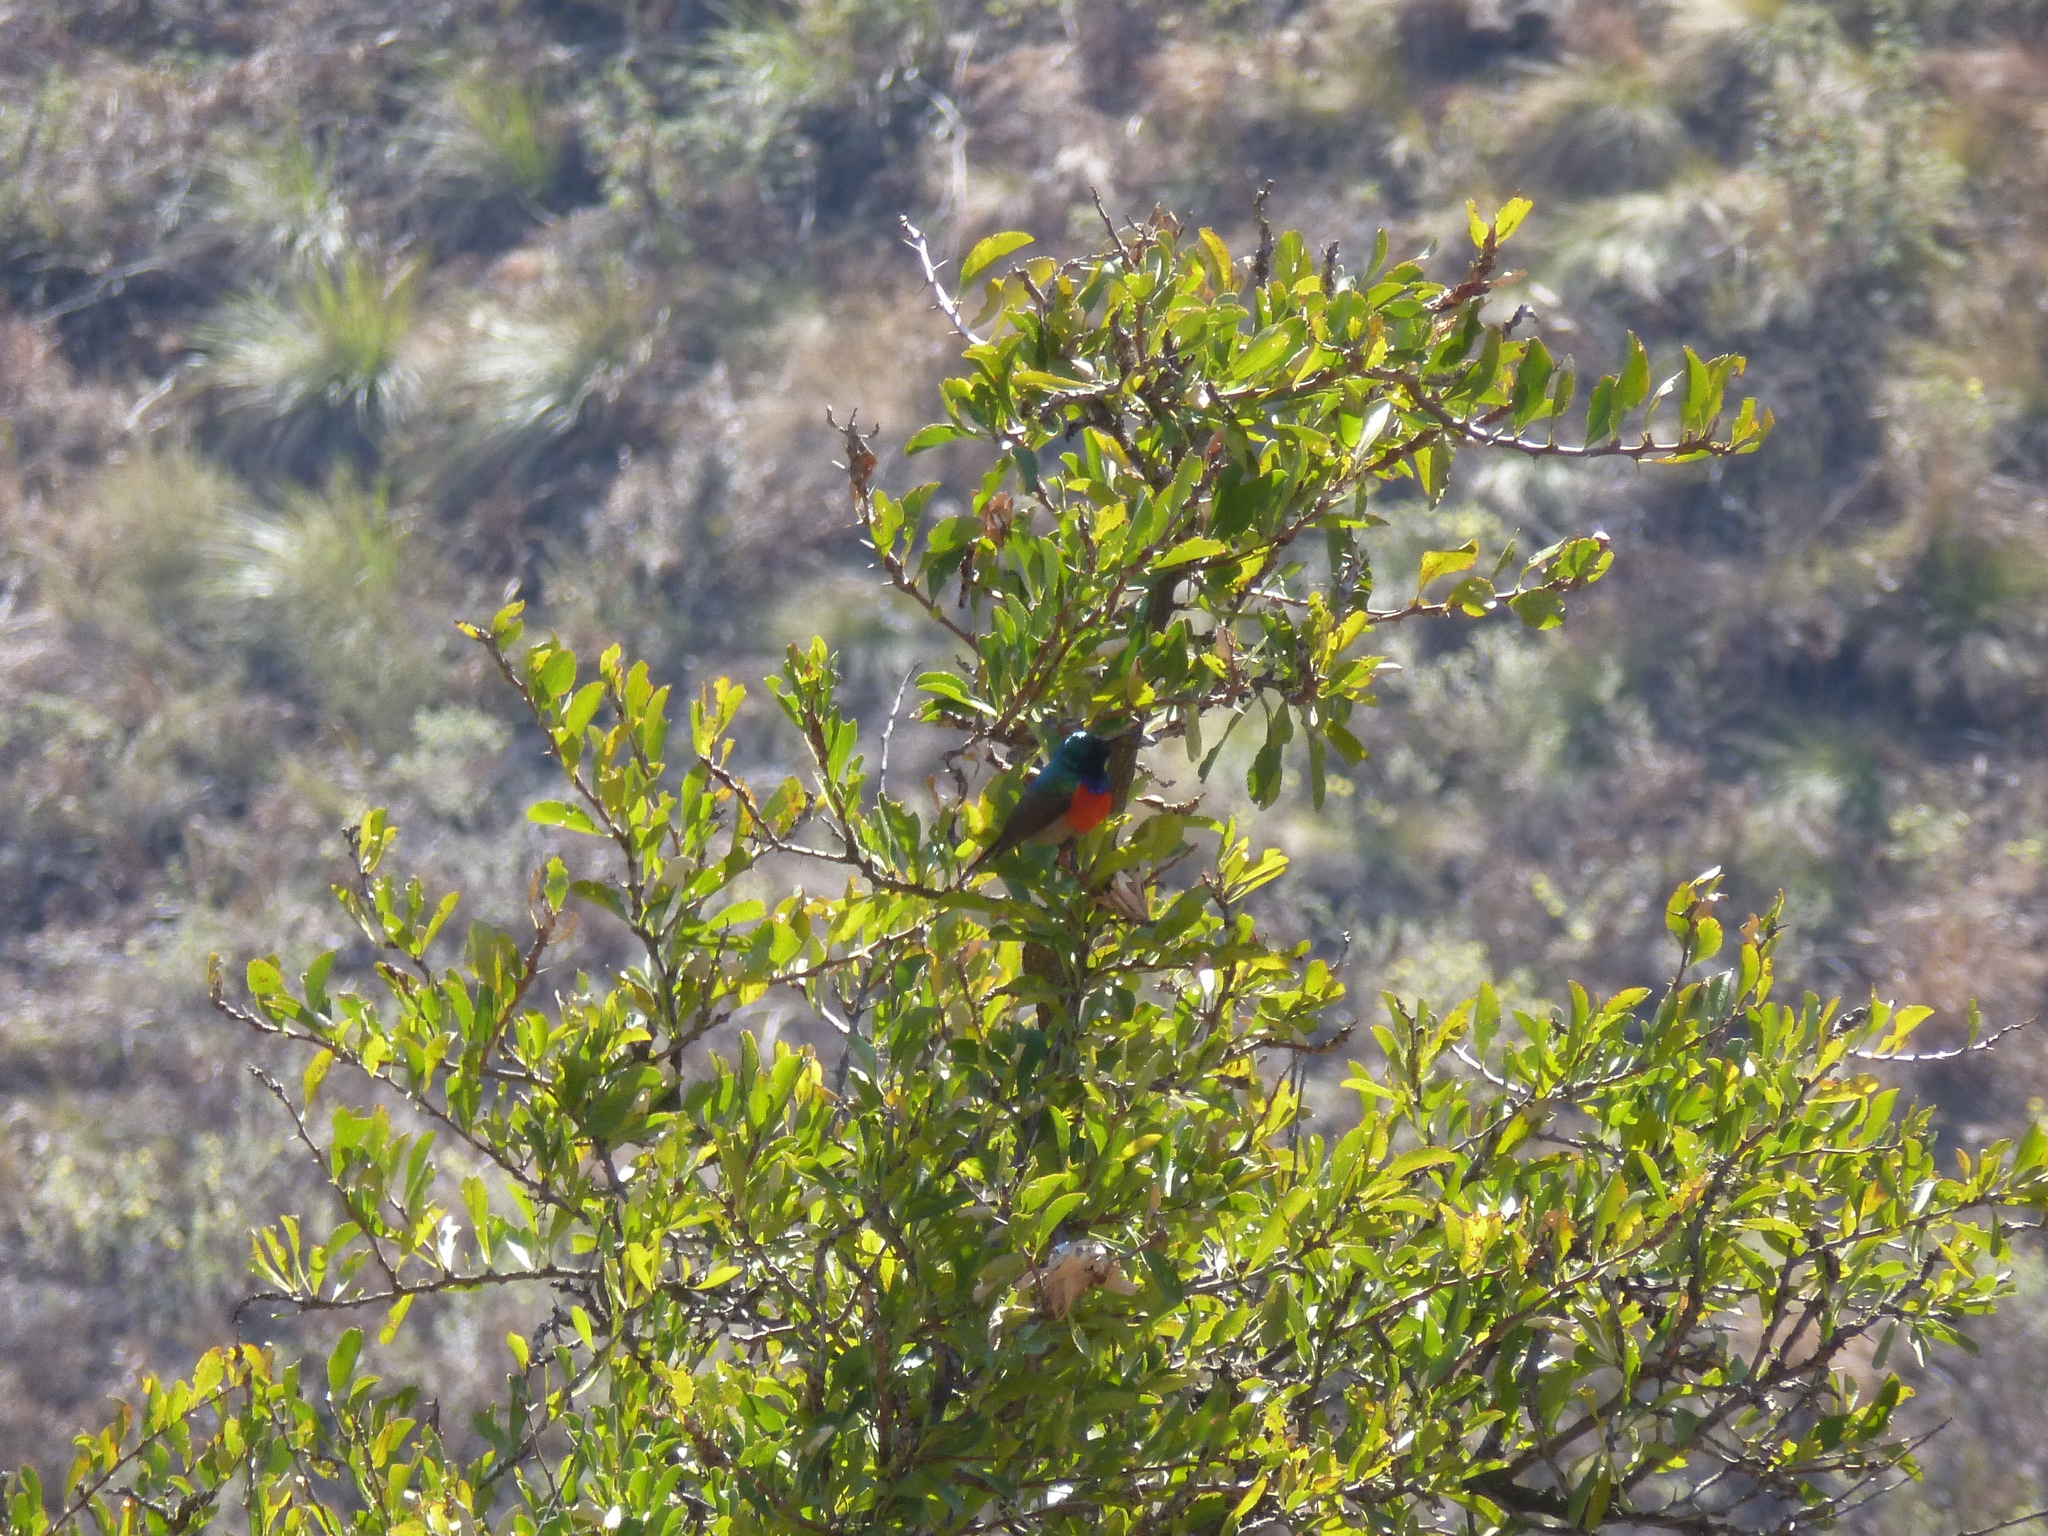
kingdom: Animalia
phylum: Chordata
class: Aves
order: Passeriformes
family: Nectariniidae
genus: Cinnyris
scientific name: Cinnyris afer
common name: Greater double-collared sunbird
